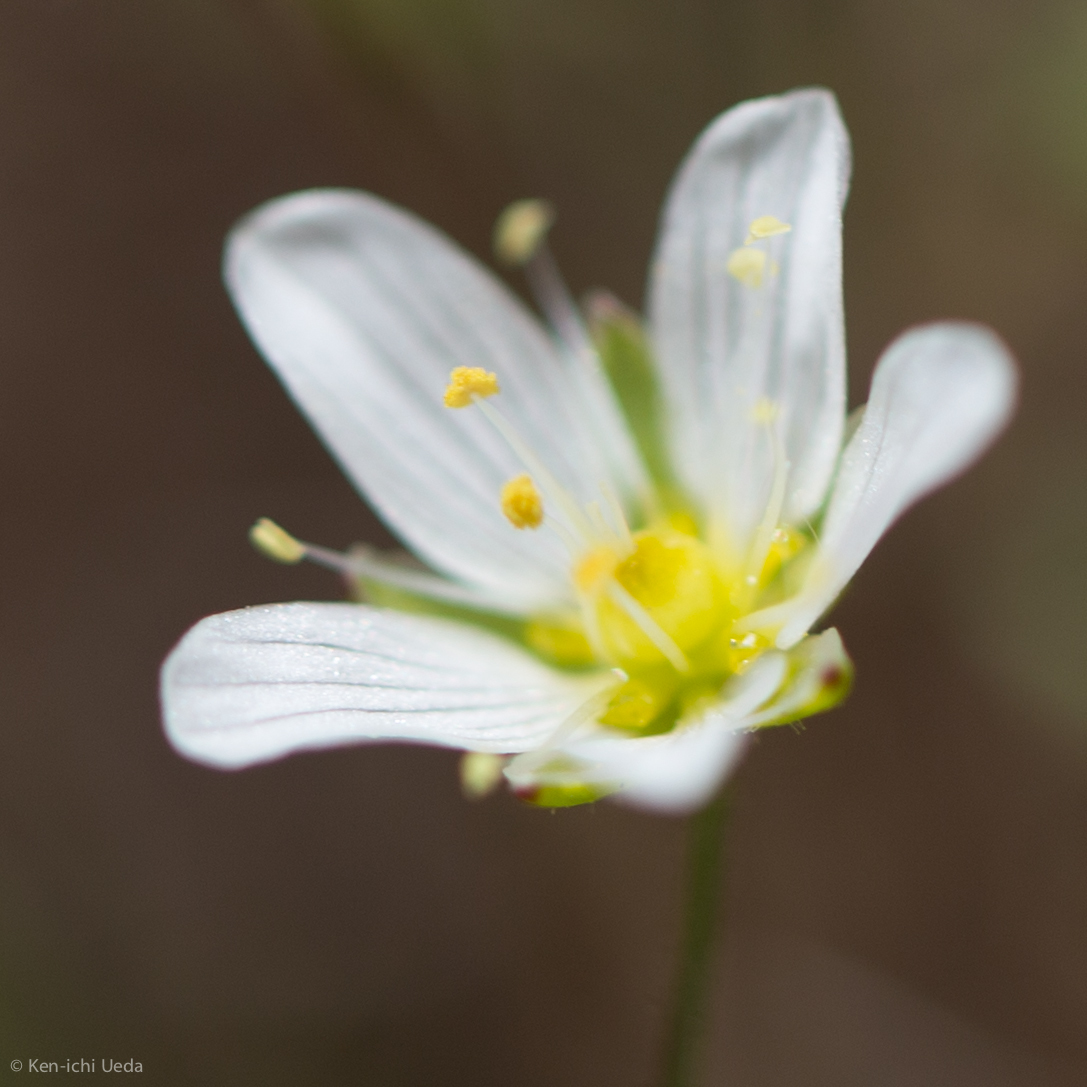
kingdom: Plantae
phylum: Tracheophyta
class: Magnoliopsida
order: Caryophyllales
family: Caryophyllaceae
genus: Sabulina
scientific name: Sabulina douglasii
